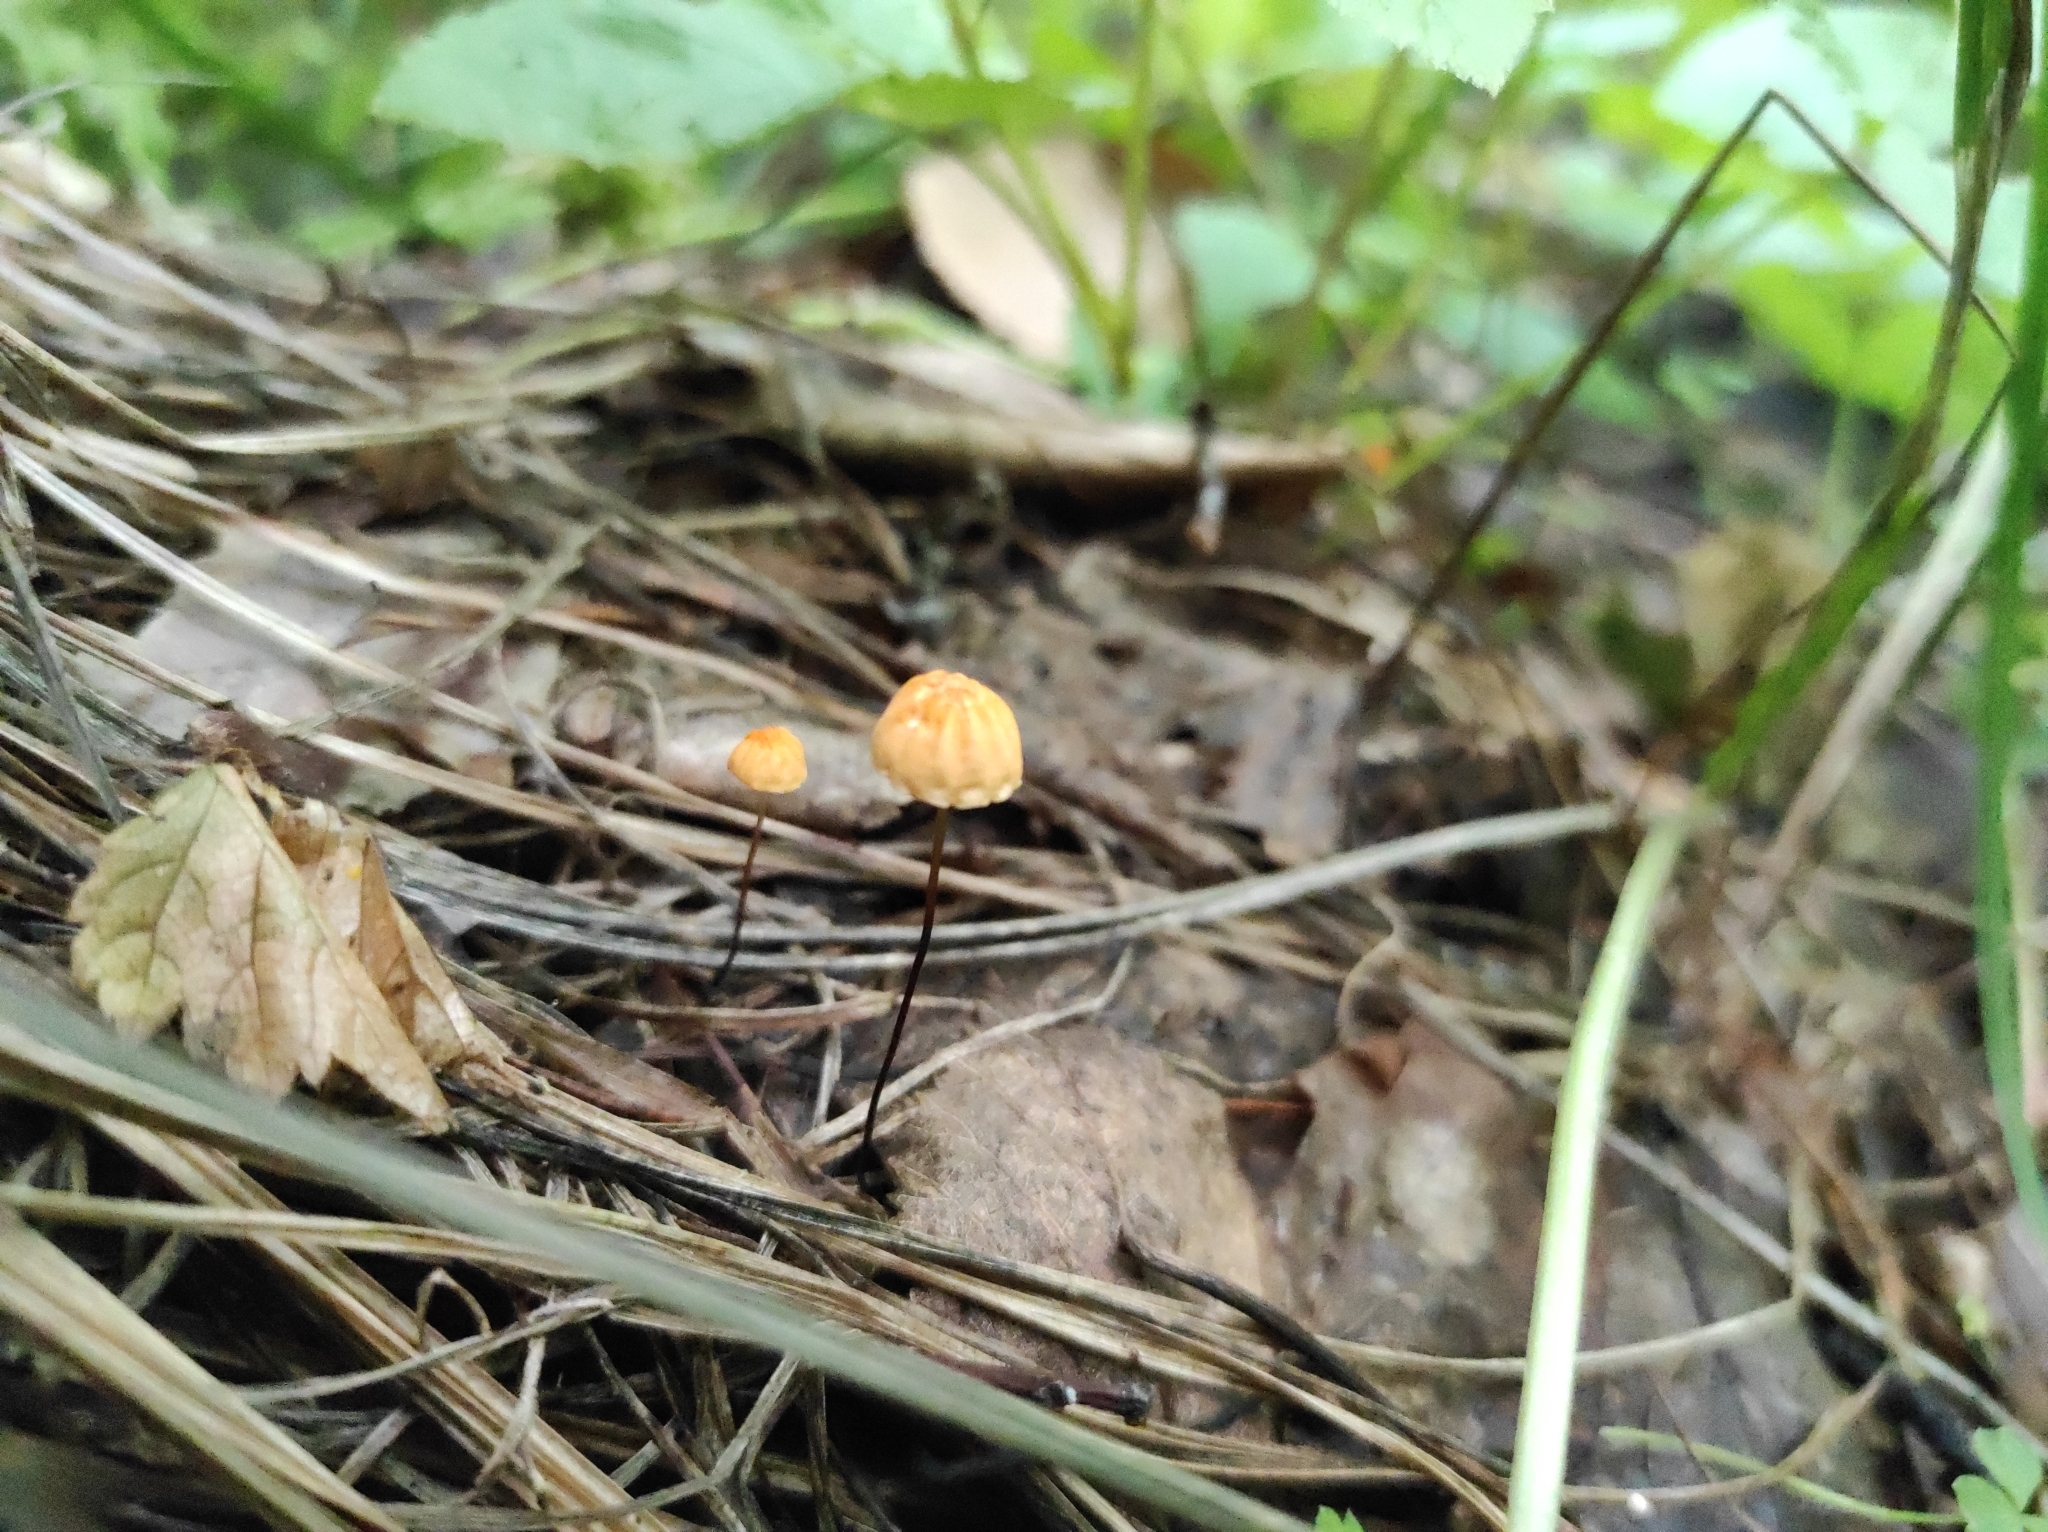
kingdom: Fungi
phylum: Basidiomycota
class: Agaricomycetes
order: Agaricales
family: Marasmiaceae
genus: Marasmius
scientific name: Marasmius siccus
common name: Orange pinwheel
